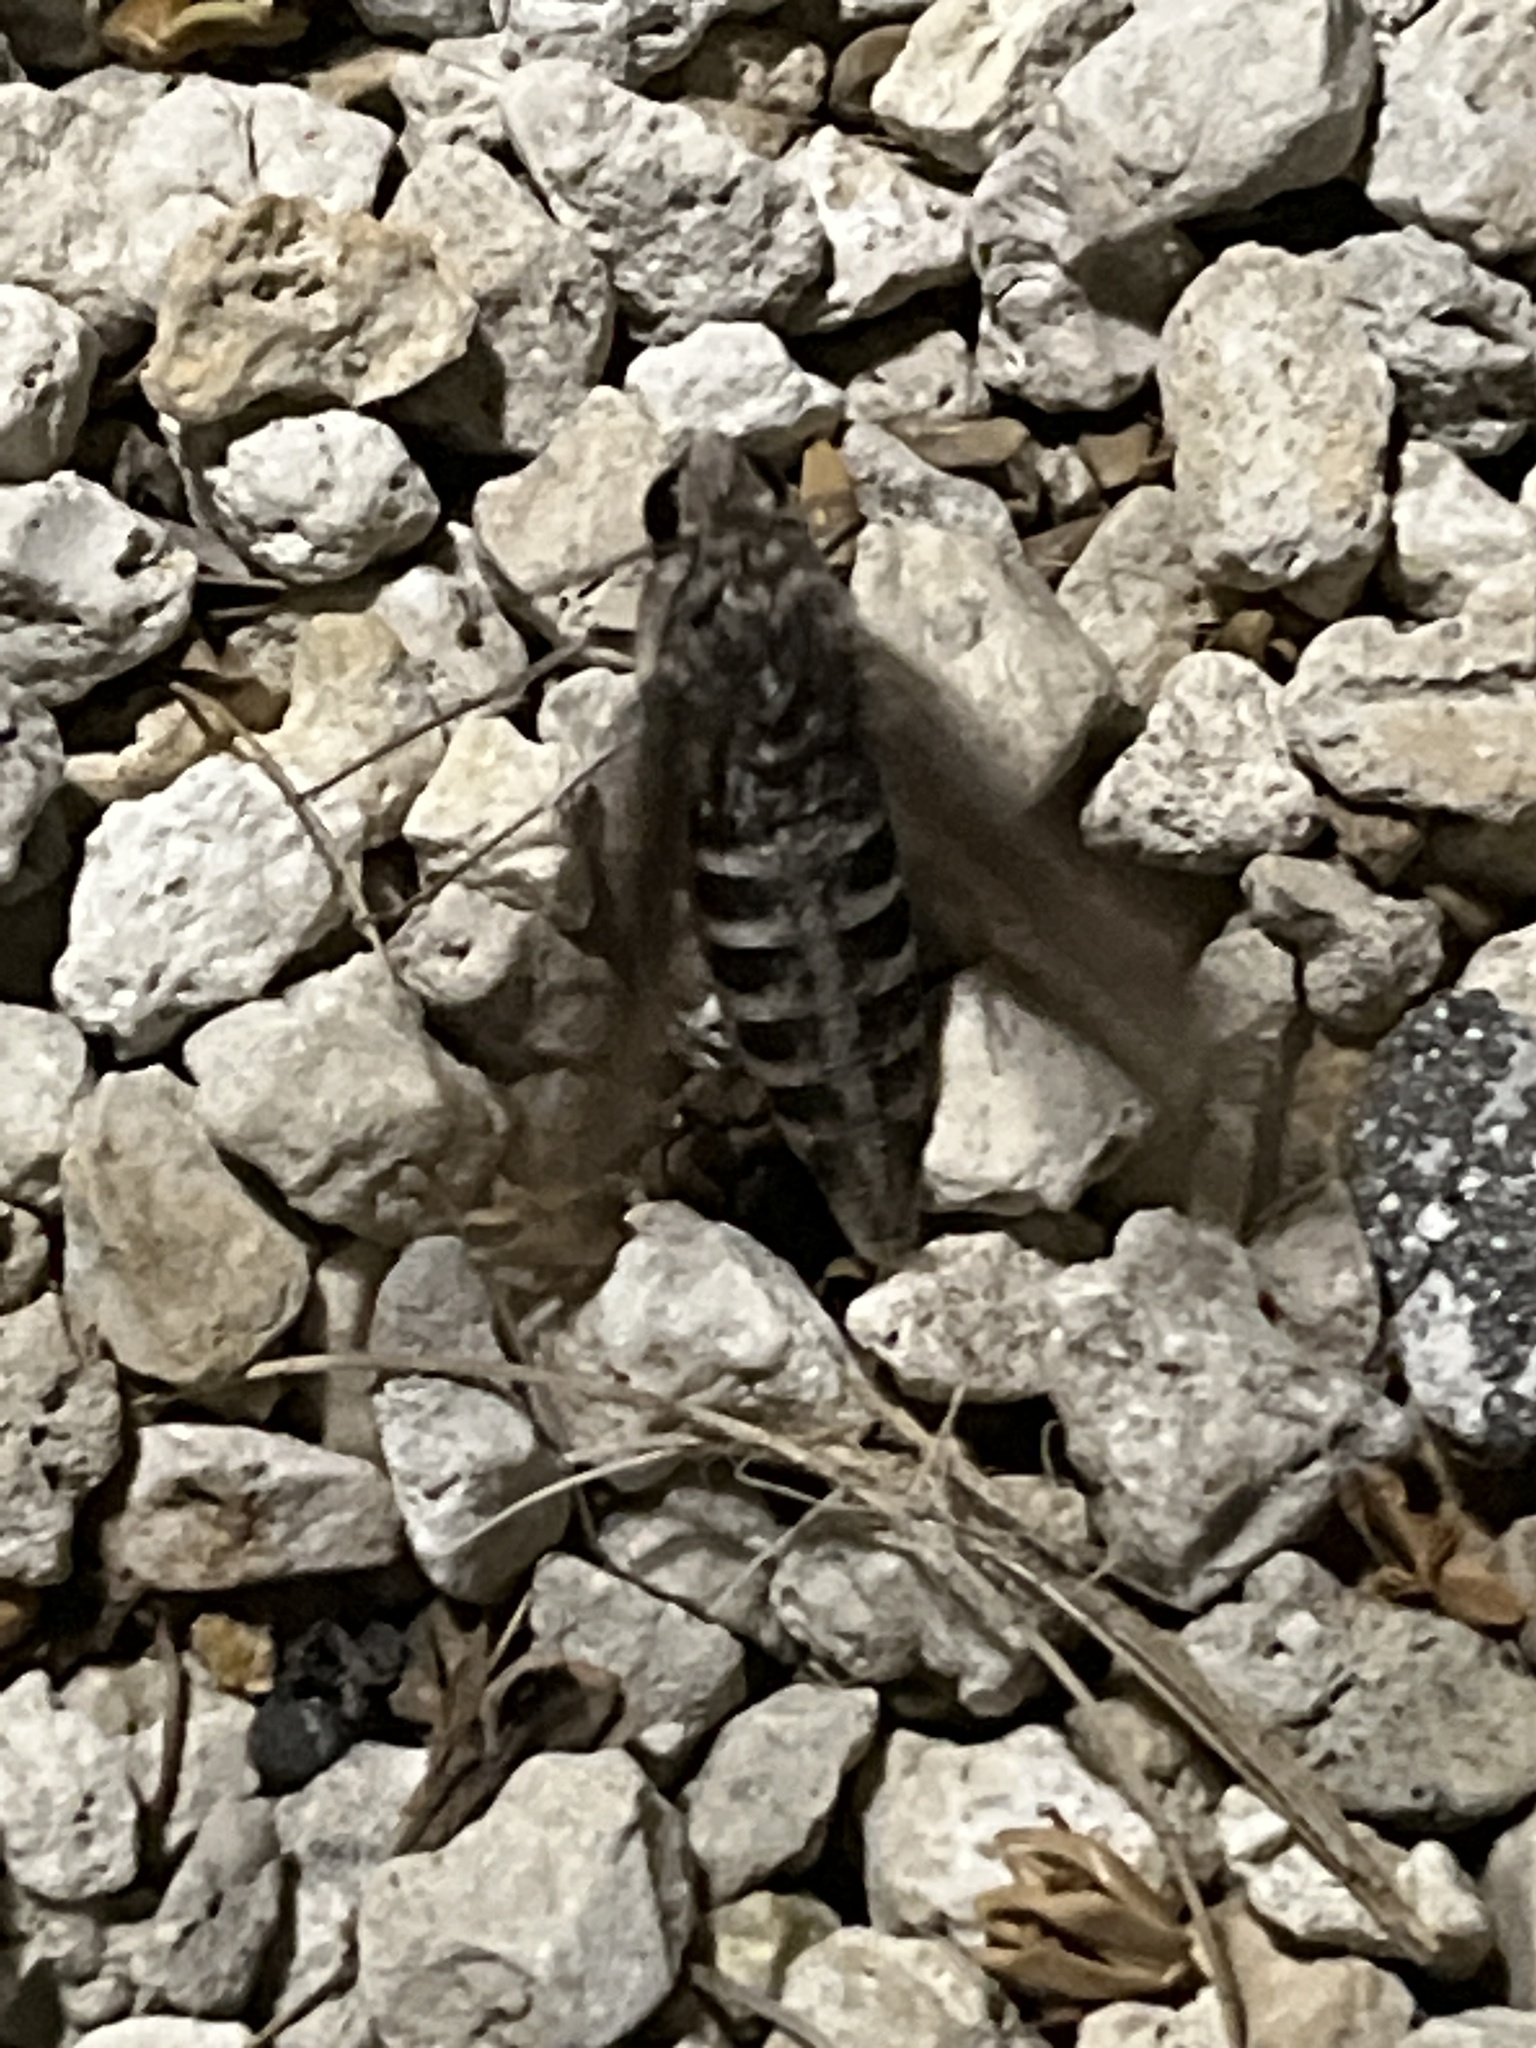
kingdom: Animalia
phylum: Arthropoda
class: Insecta
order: Lepidoptera
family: Sphingidae
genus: Erinnyis
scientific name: Erinnyis ello
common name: Ello sphinx
